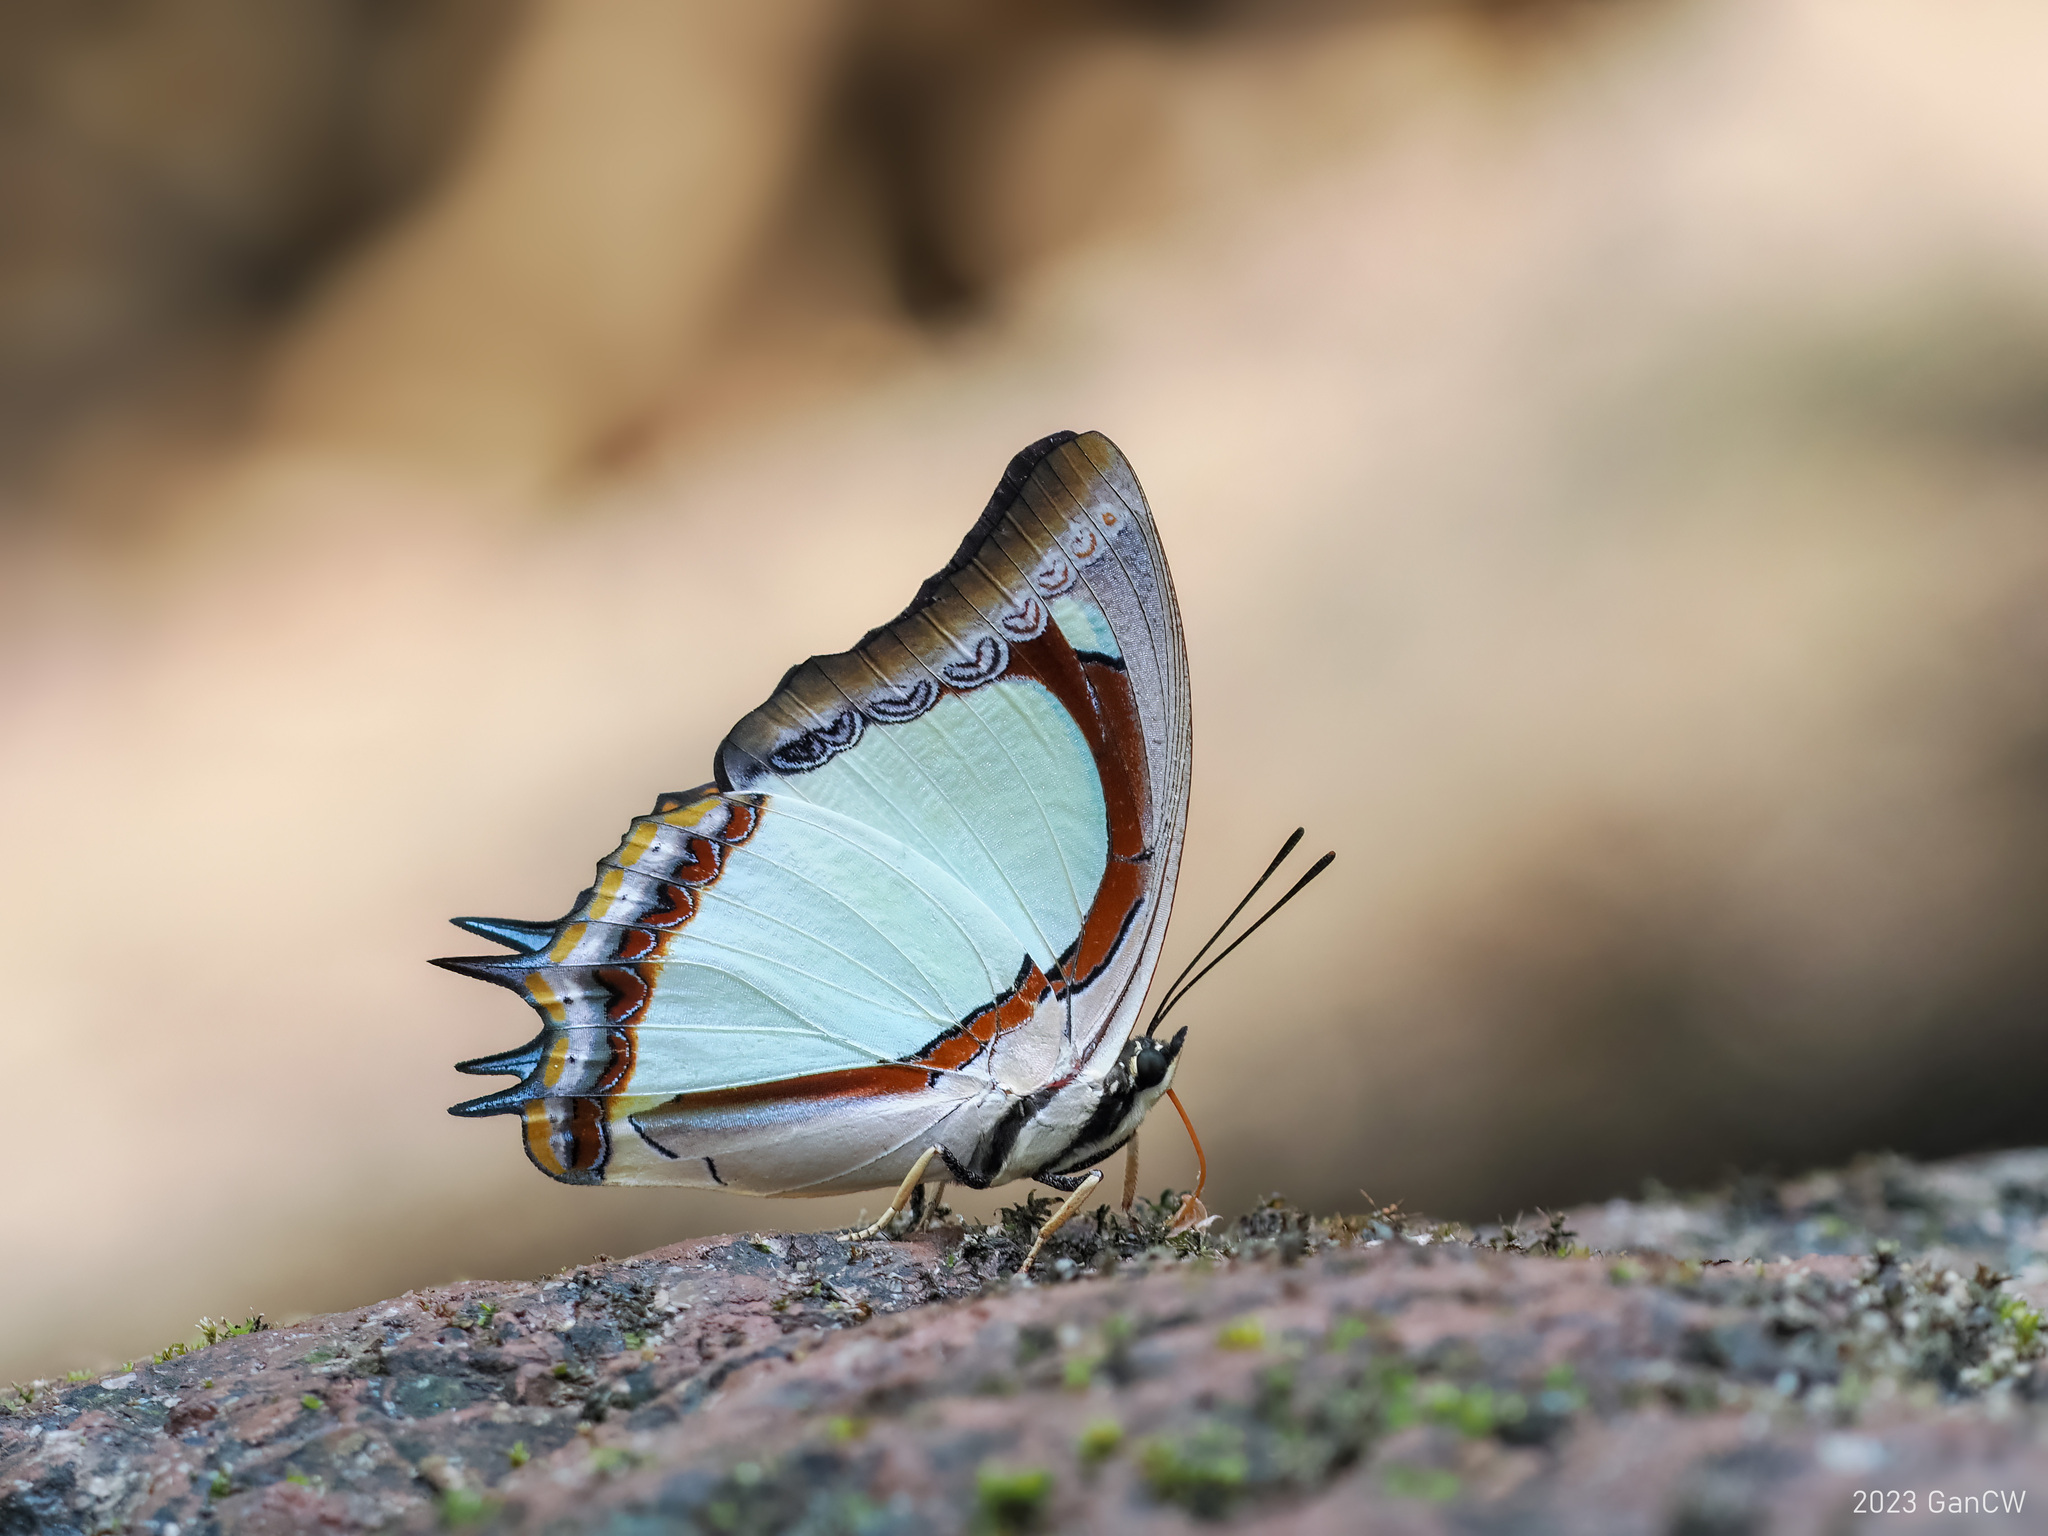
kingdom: Animalia
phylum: Arthropoda
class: Insecta
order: Lepidoptera
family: Nymphalidae
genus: Polyura
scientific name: Polyura jalysus
